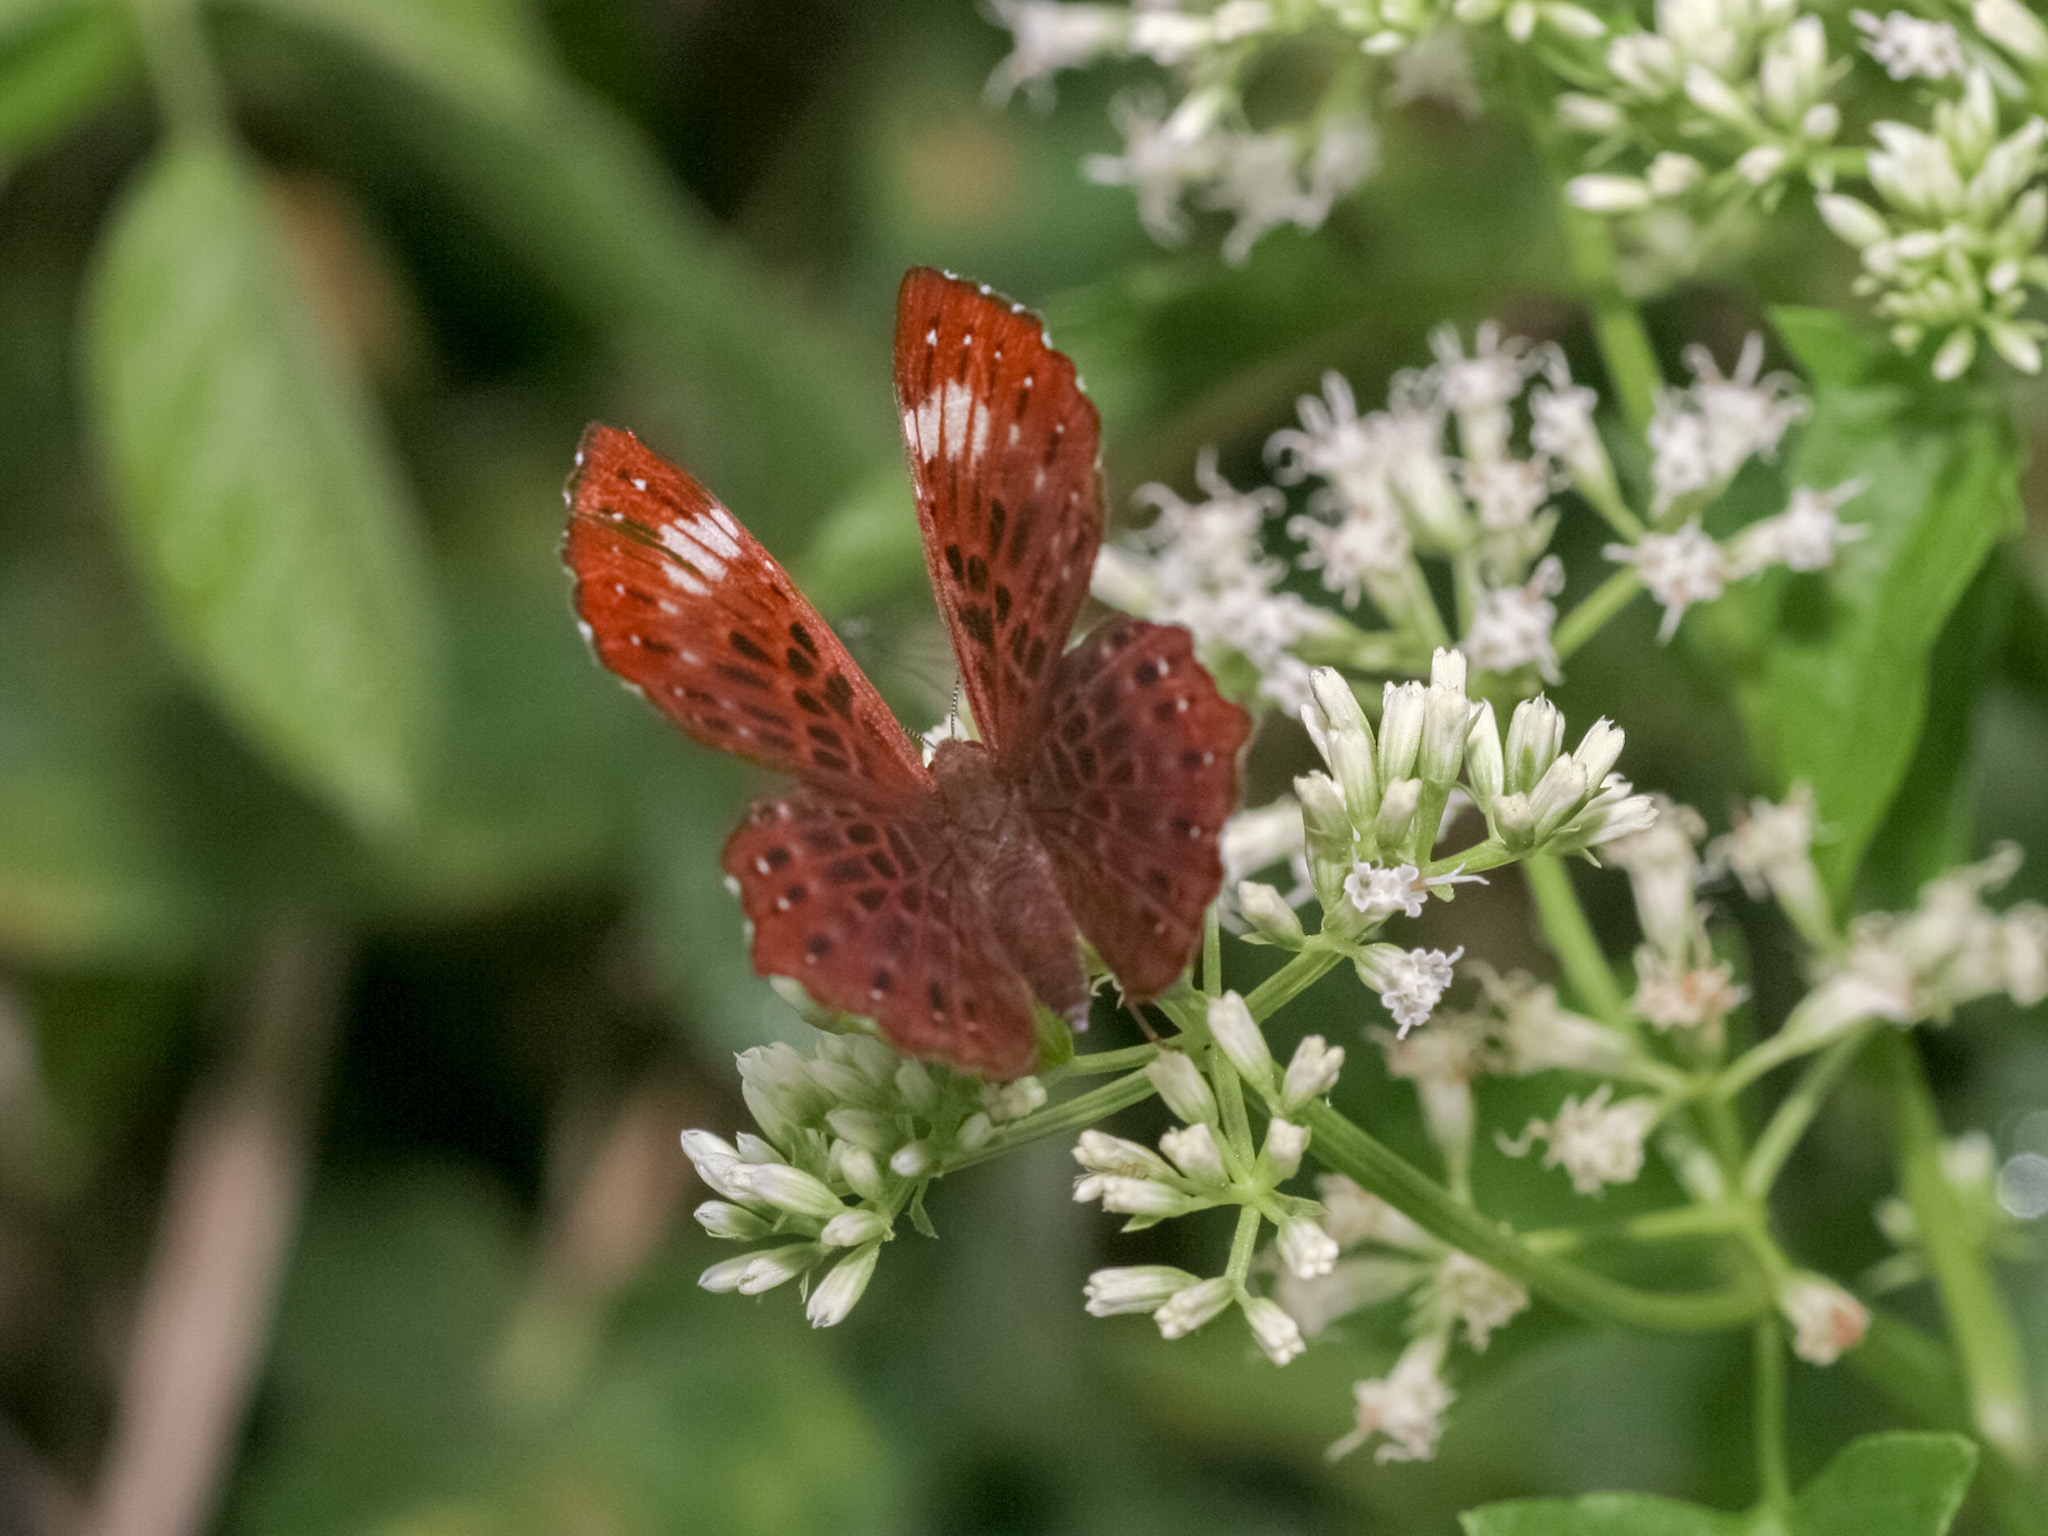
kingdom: Animalia
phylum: Arthropoda
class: Insecta
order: Lepidoptera
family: Riodinidae
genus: Zemeros
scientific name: Zemeros flegyas
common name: Punchinello
